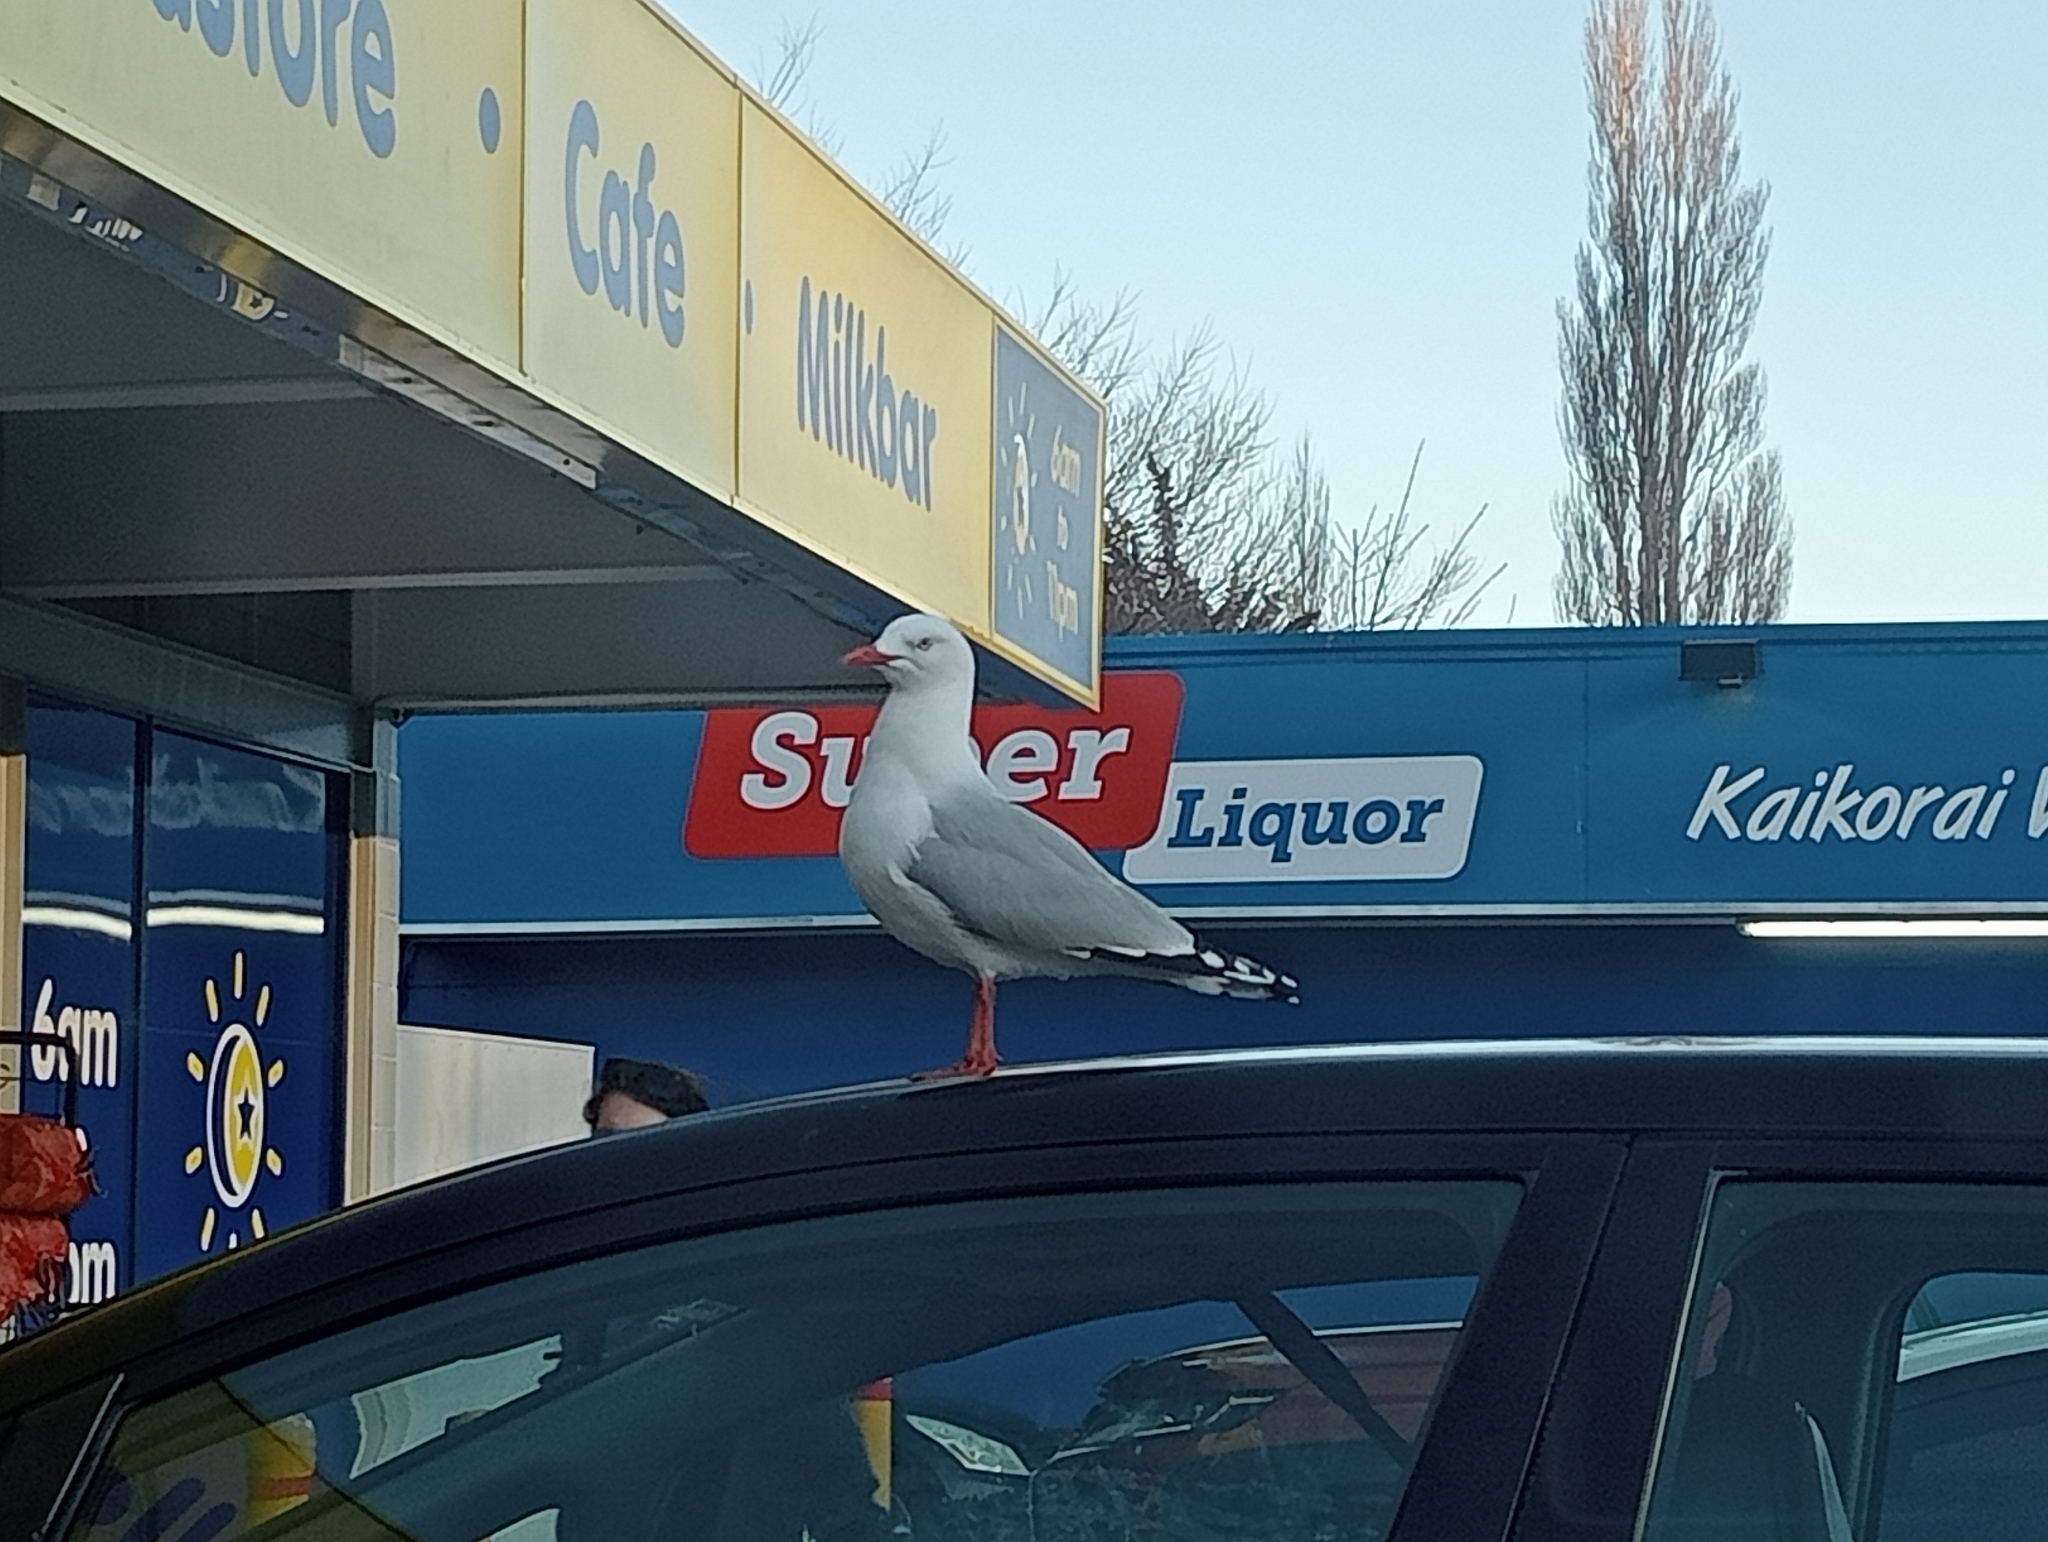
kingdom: Animalia
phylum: Chordata
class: Aves
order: Charadriiformes
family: Laridae
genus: Chroicocephalus
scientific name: Chroicocephalus novaehollandiae
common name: Silver gull
